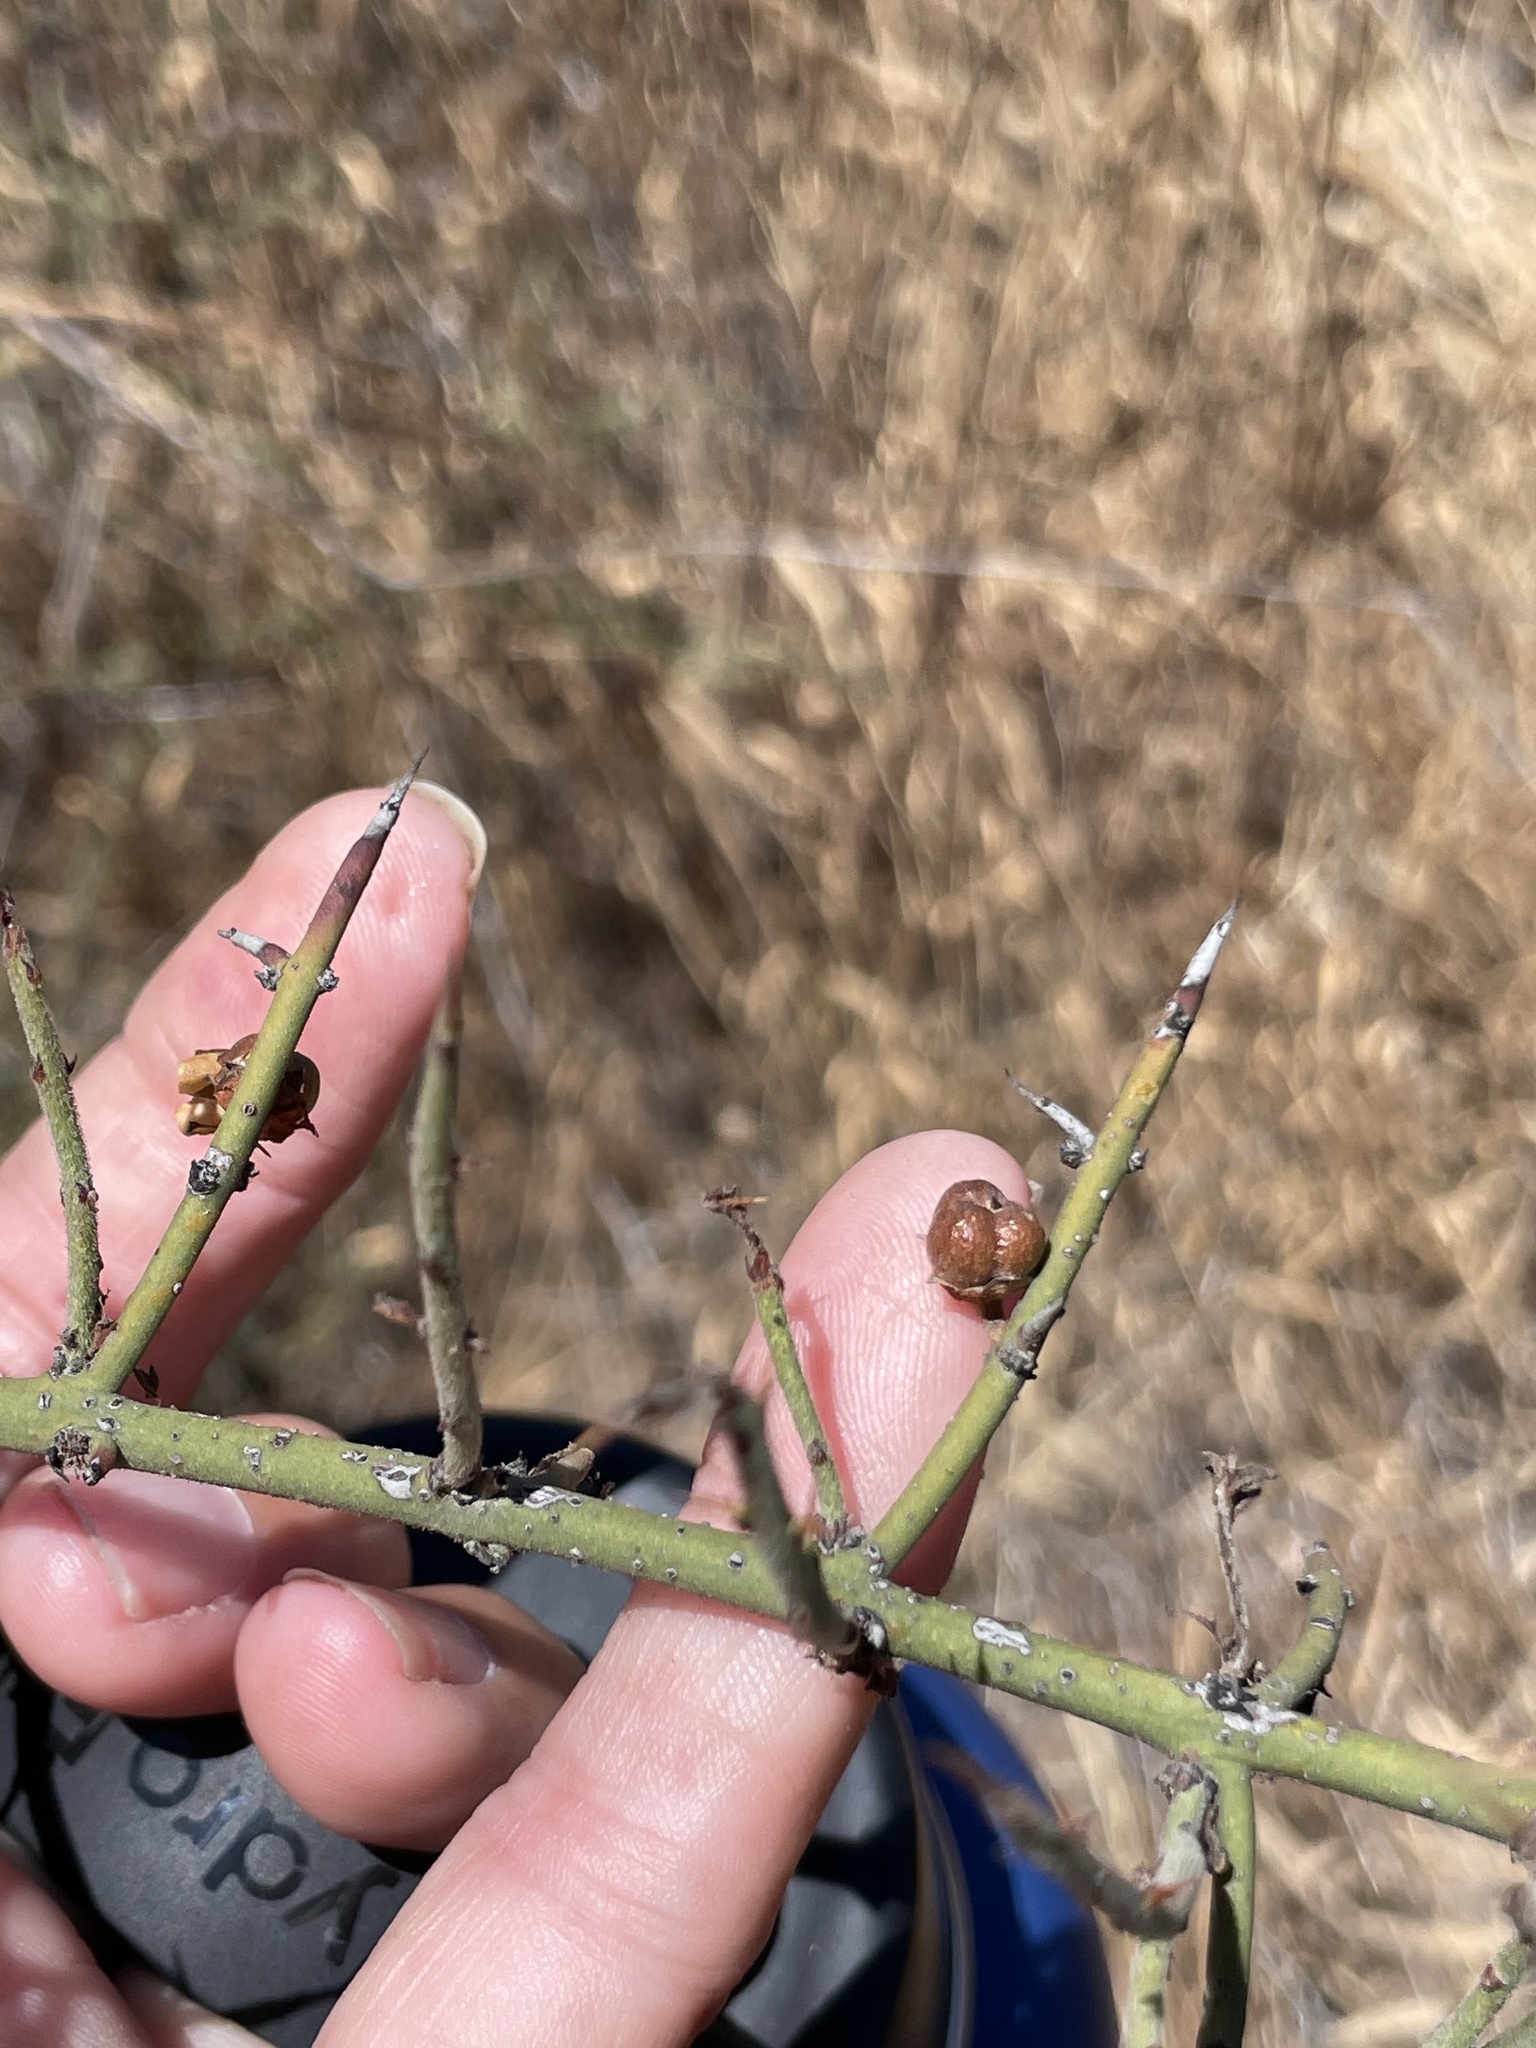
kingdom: Plantae
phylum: Tracheophyta
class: Magnoliopsida
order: Rosales
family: Rhamnaceae
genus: Adolphia
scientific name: Adolphia californica
